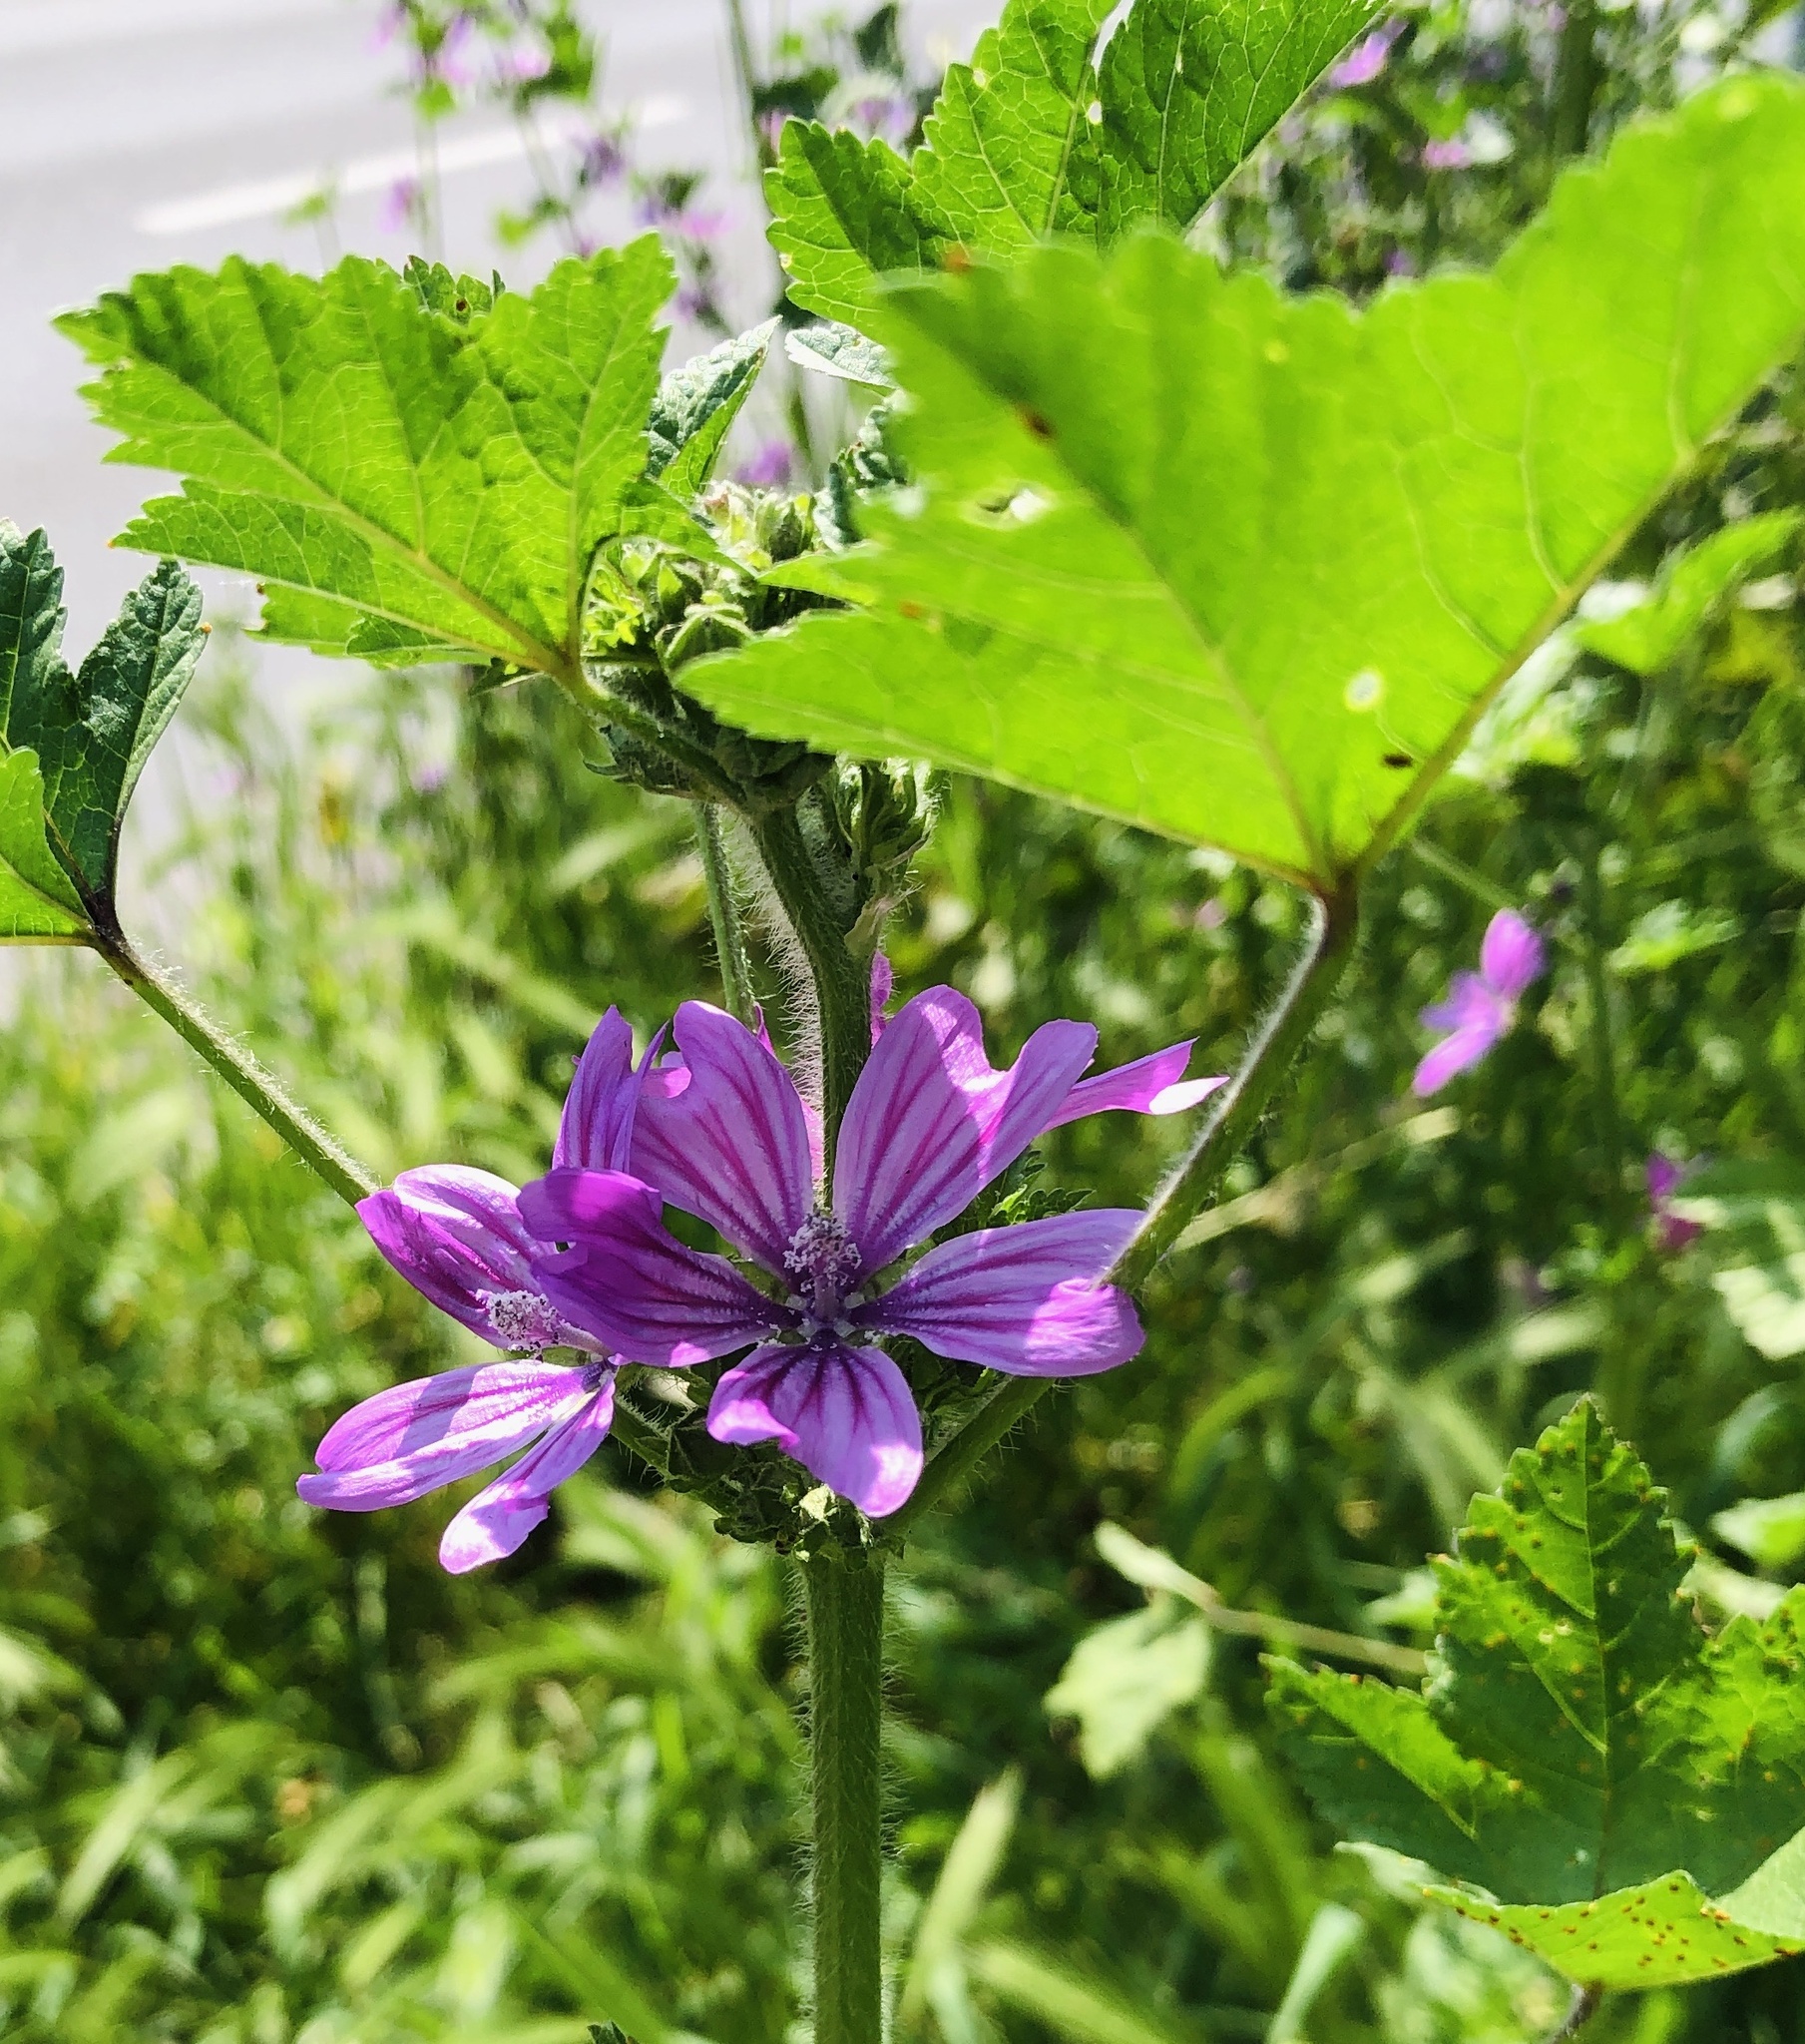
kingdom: Plantae
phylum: Tracheophyta
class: Magnoliopsida
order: Malvales
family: Malvaceae
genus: Malva
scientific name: Malva sylvestris
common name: Common mallow
